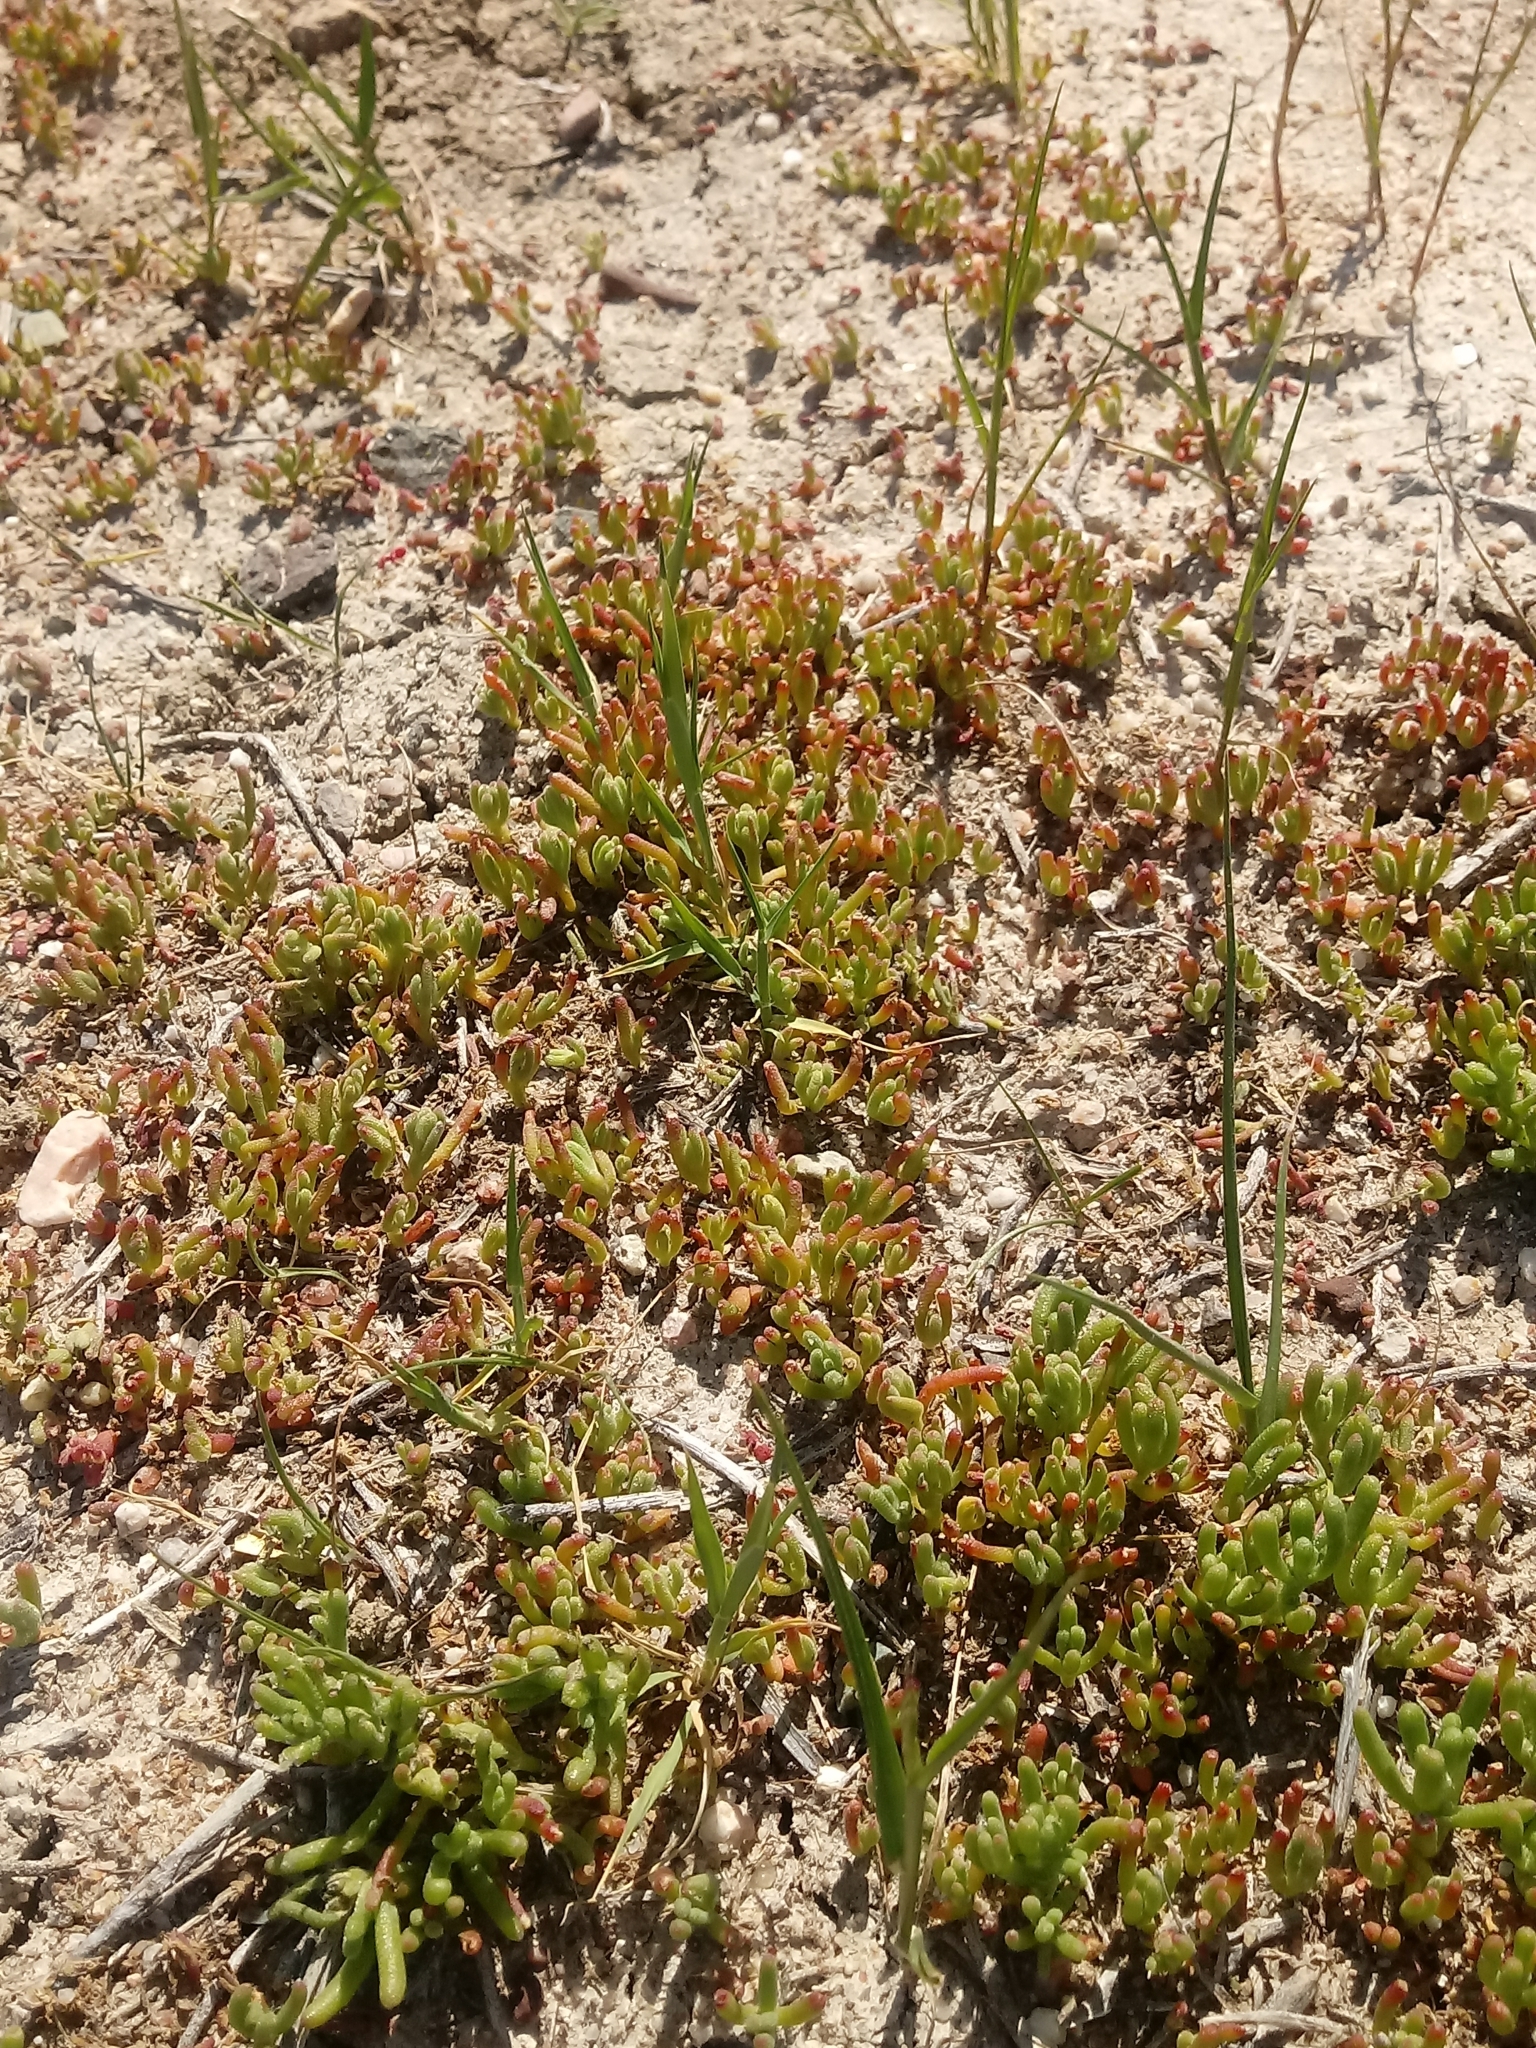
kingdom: Plantae
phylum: Tracheophyta
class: Magnoliopsida
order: Caryophyllales
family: Aizoaceae
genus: Mesembryanthemum
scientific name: Mesembryanthemum nodiflorum
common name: Slenderleaf iceplant
